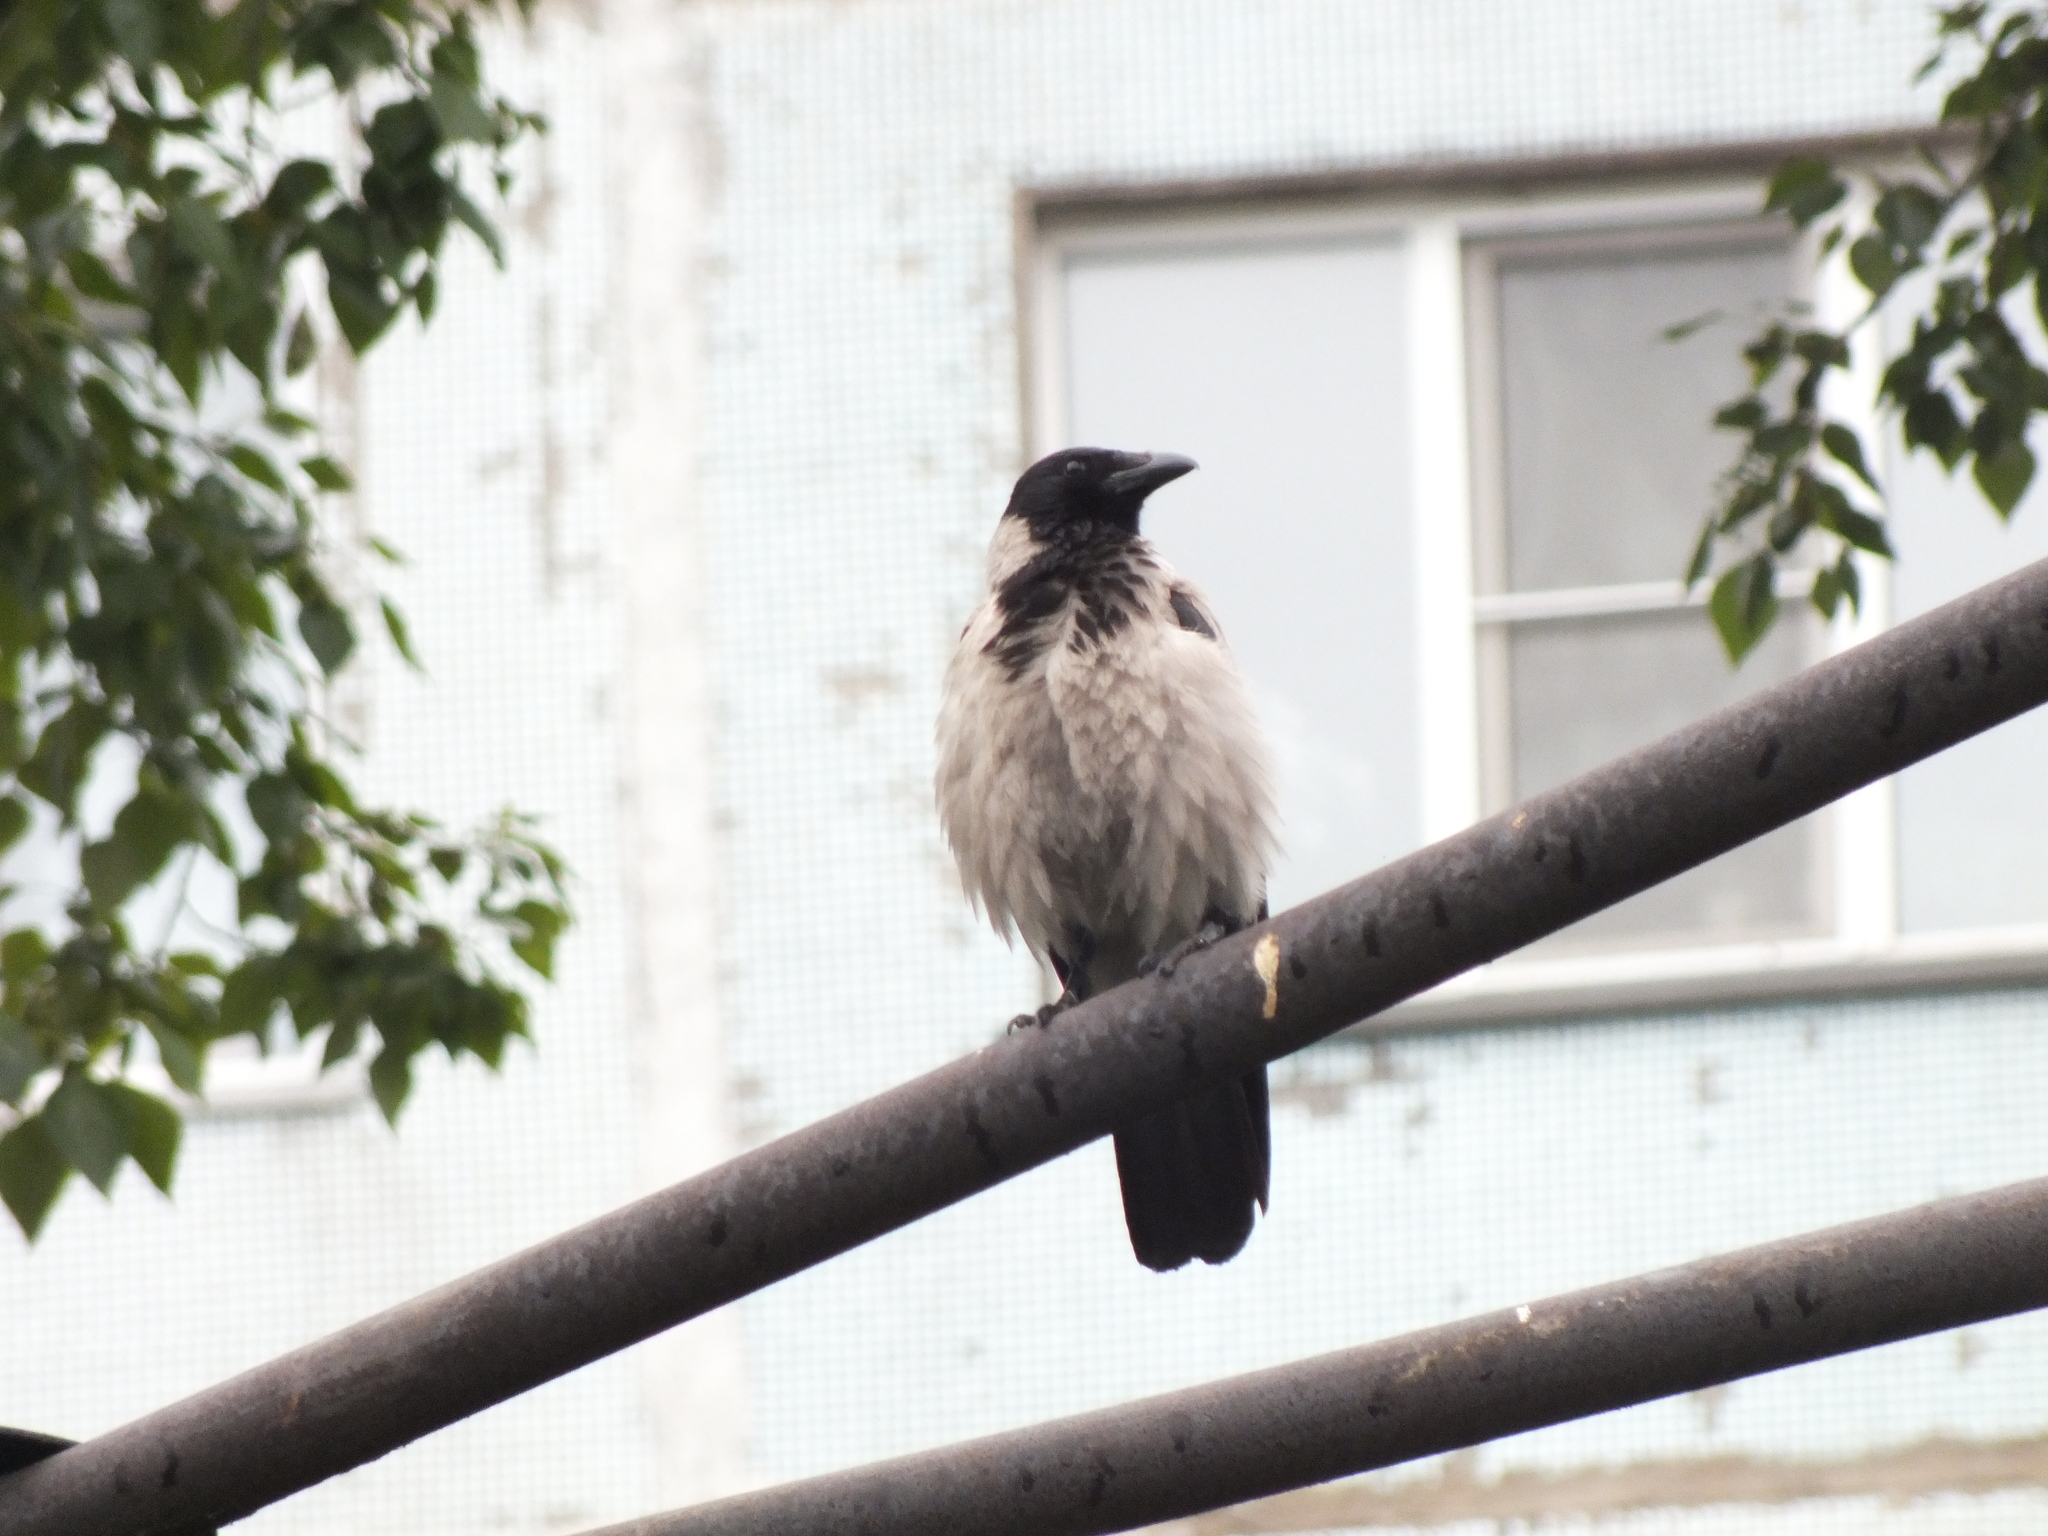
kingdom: Animalia
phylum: Chordata
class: Aves
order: Passeriformes
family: Corvidae
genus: Corvus
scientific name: Corvus cornix
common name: Hooded crow
